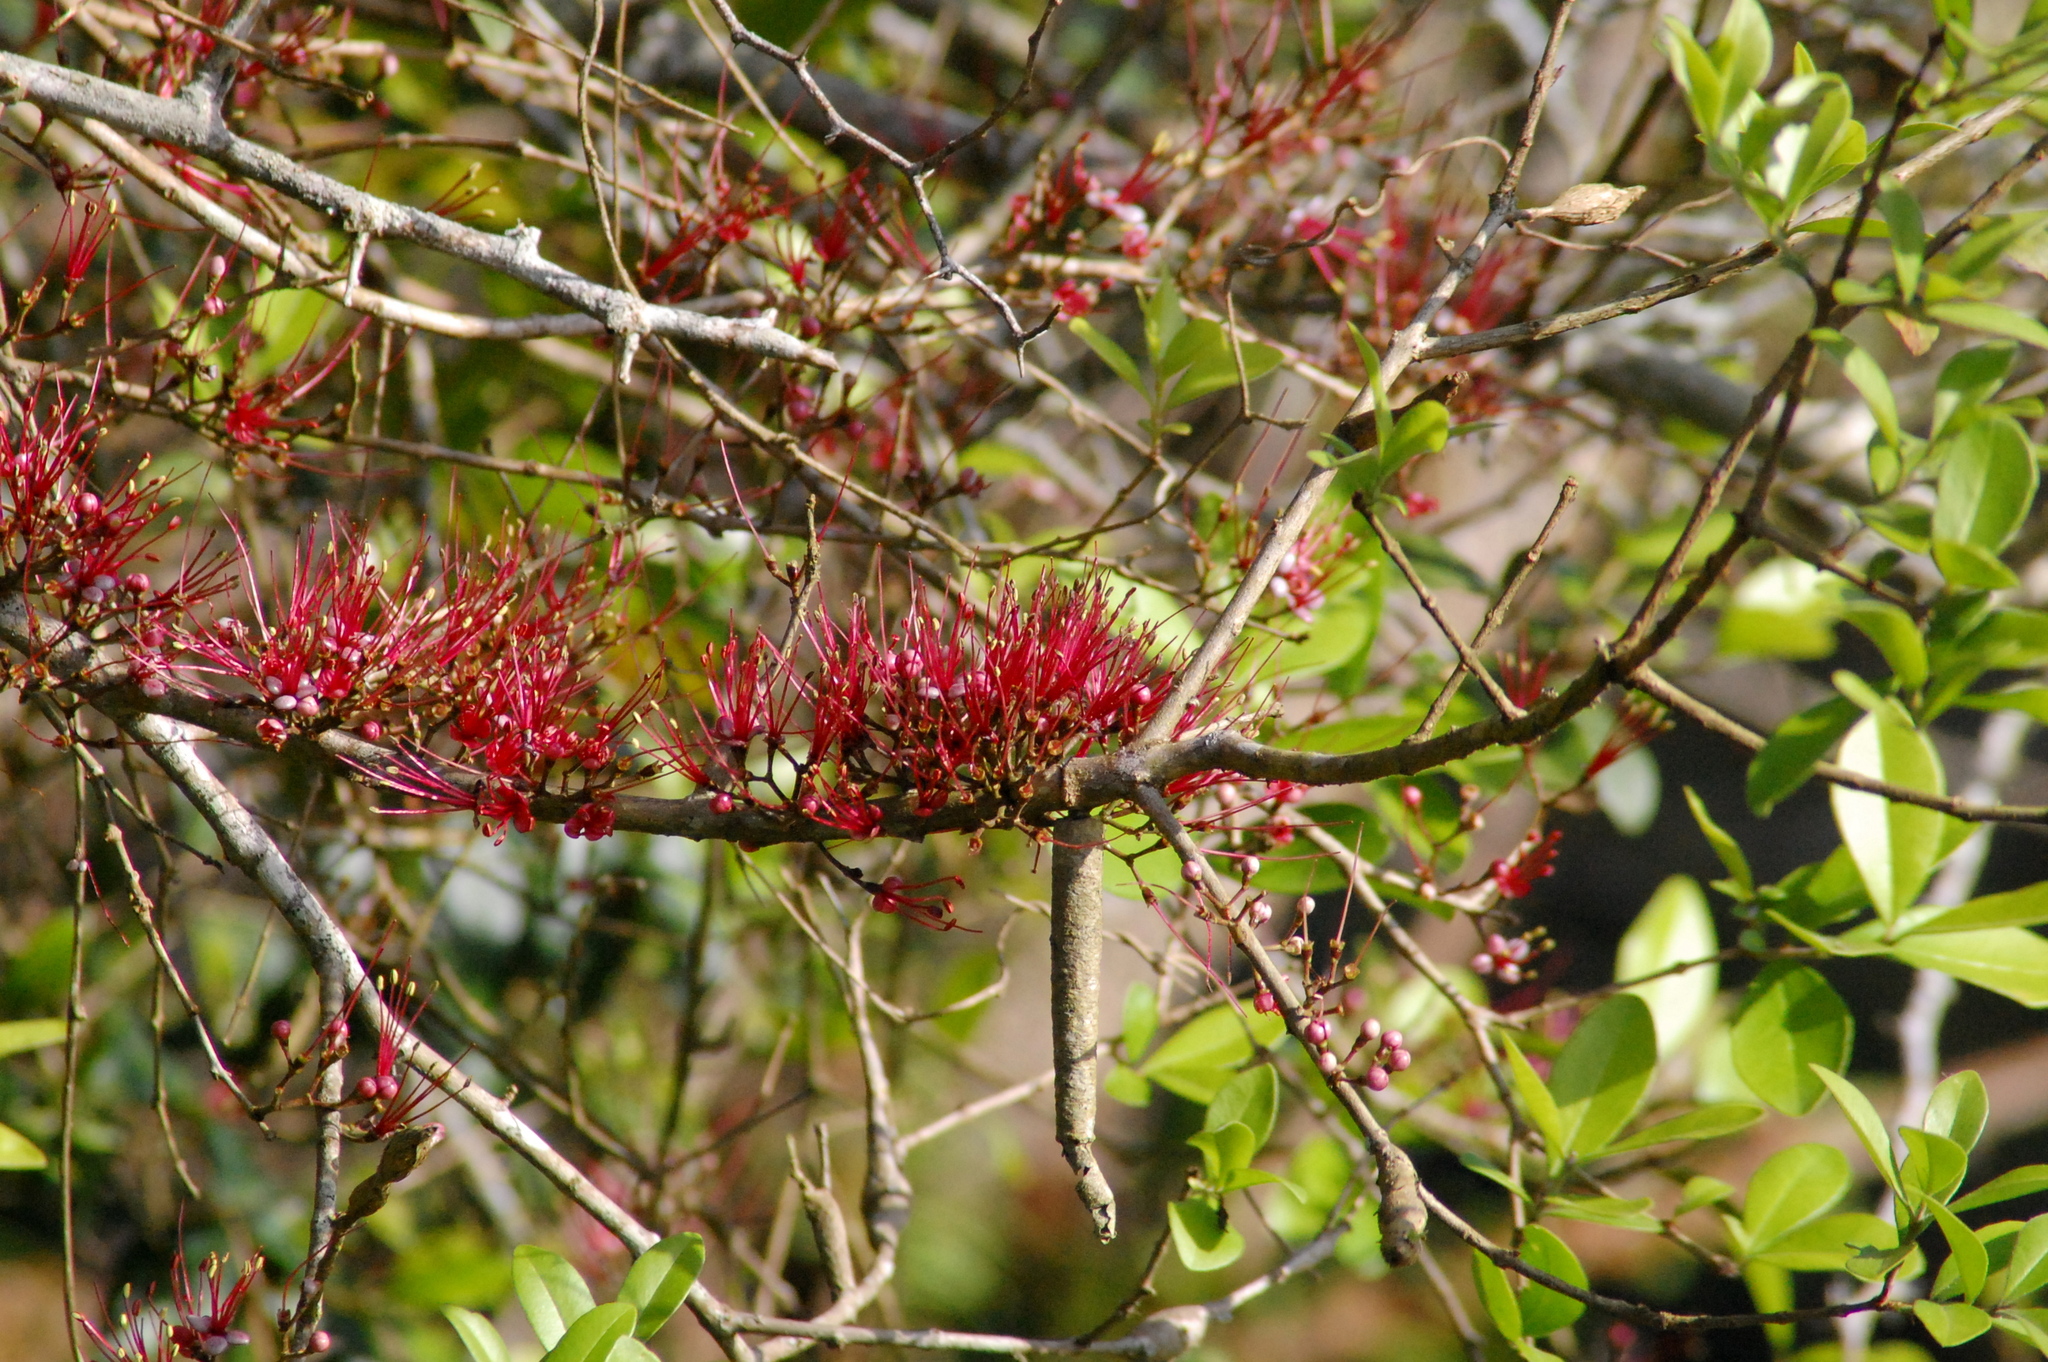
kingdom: Plantae
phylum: Tracheophyta
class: Magnoliopsida
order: Myrtales
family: Myrtaceae
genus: Myrrhinium
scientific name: Myrrhinium atropurpureum
